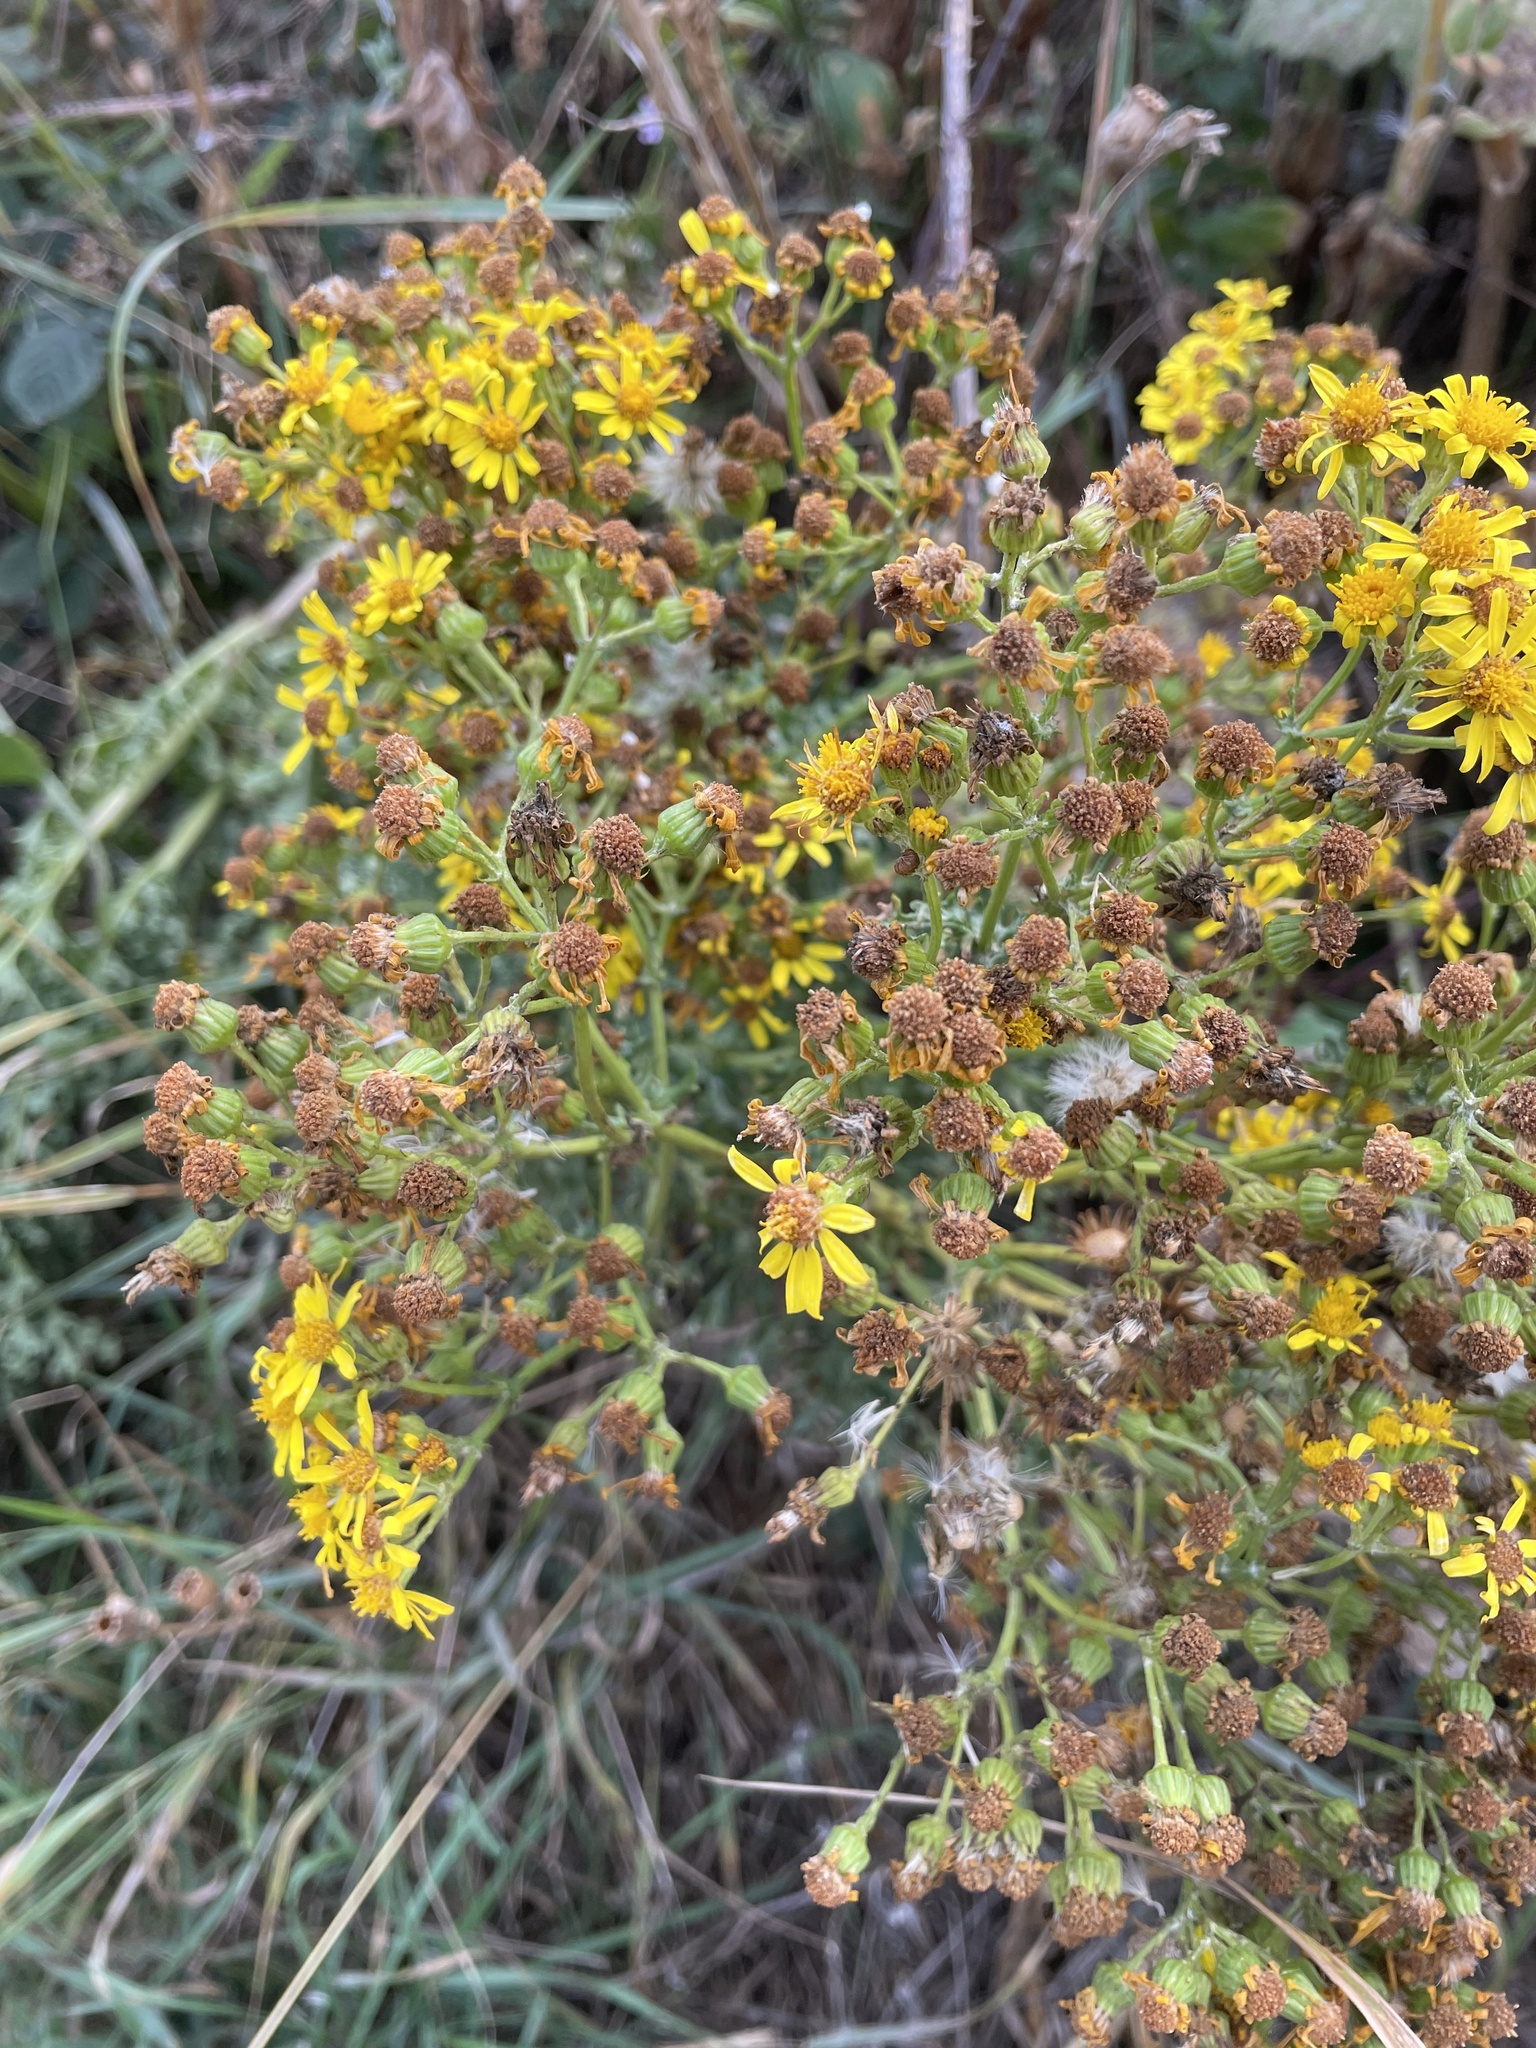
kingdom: Plantae
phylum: Tracheophyta
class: Magnoliopsida
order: Asterales
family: Asteraceae
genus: Jacobaea
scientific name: Jacobaea vulgaris
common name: Stinking willie
